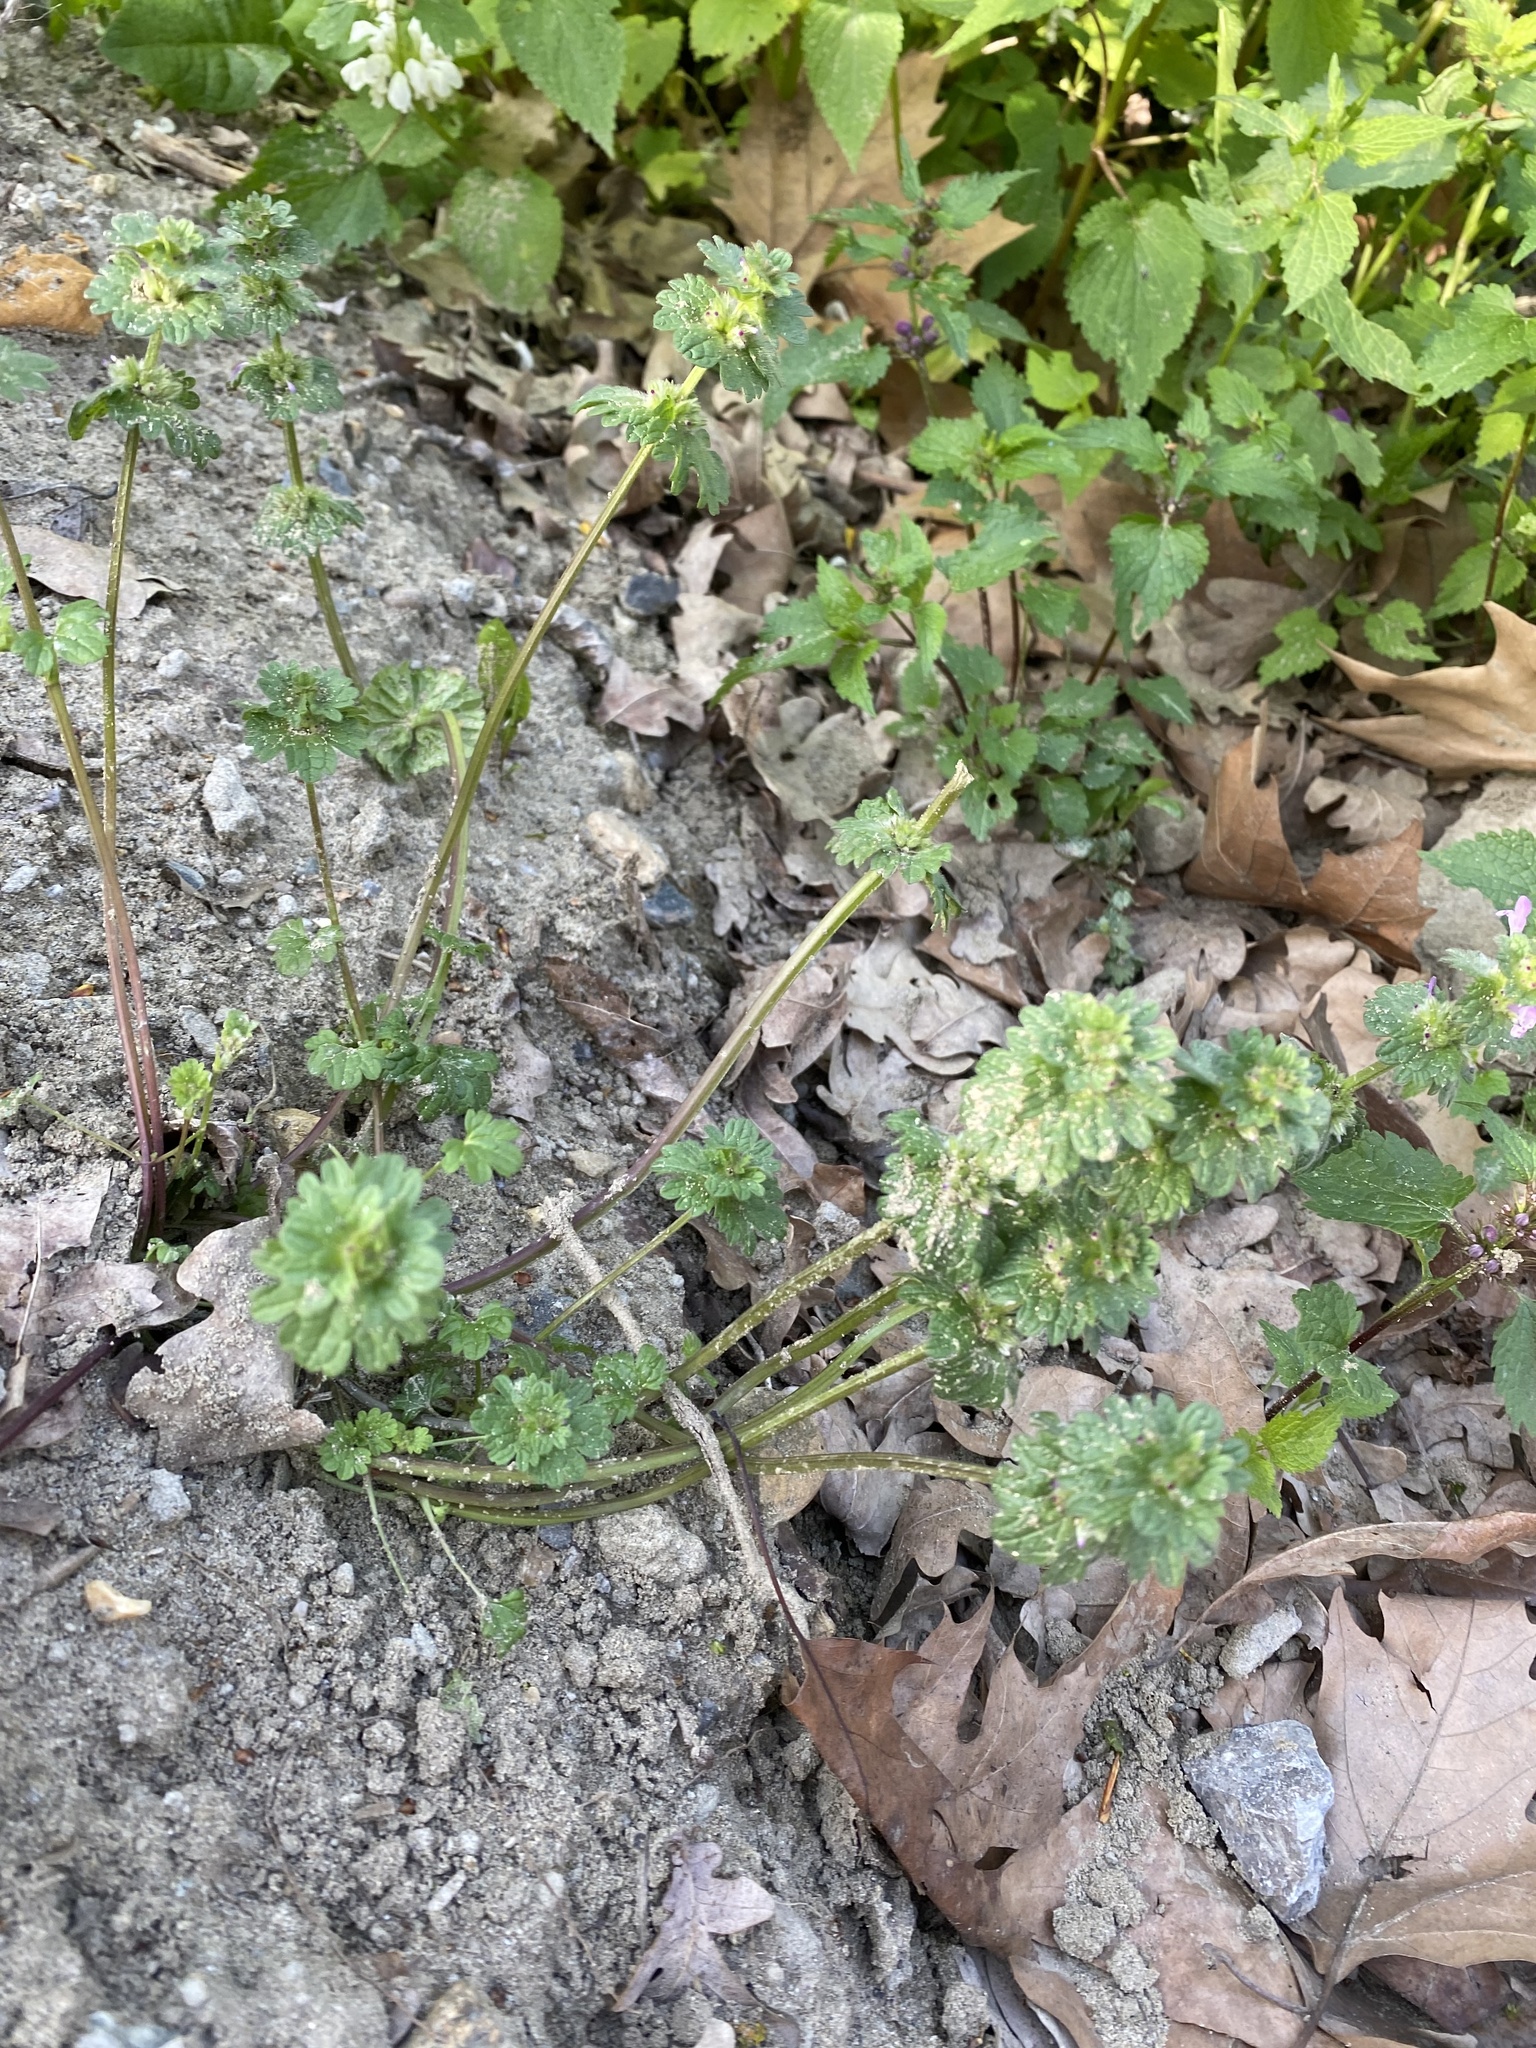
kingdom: Plantae
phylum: Tracheophyta
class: Magnoliopsida
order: Lamiales
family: Lamiaceae
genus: Lamium
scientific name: Lamium amplexicaule
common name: Henbit dead-nettle
